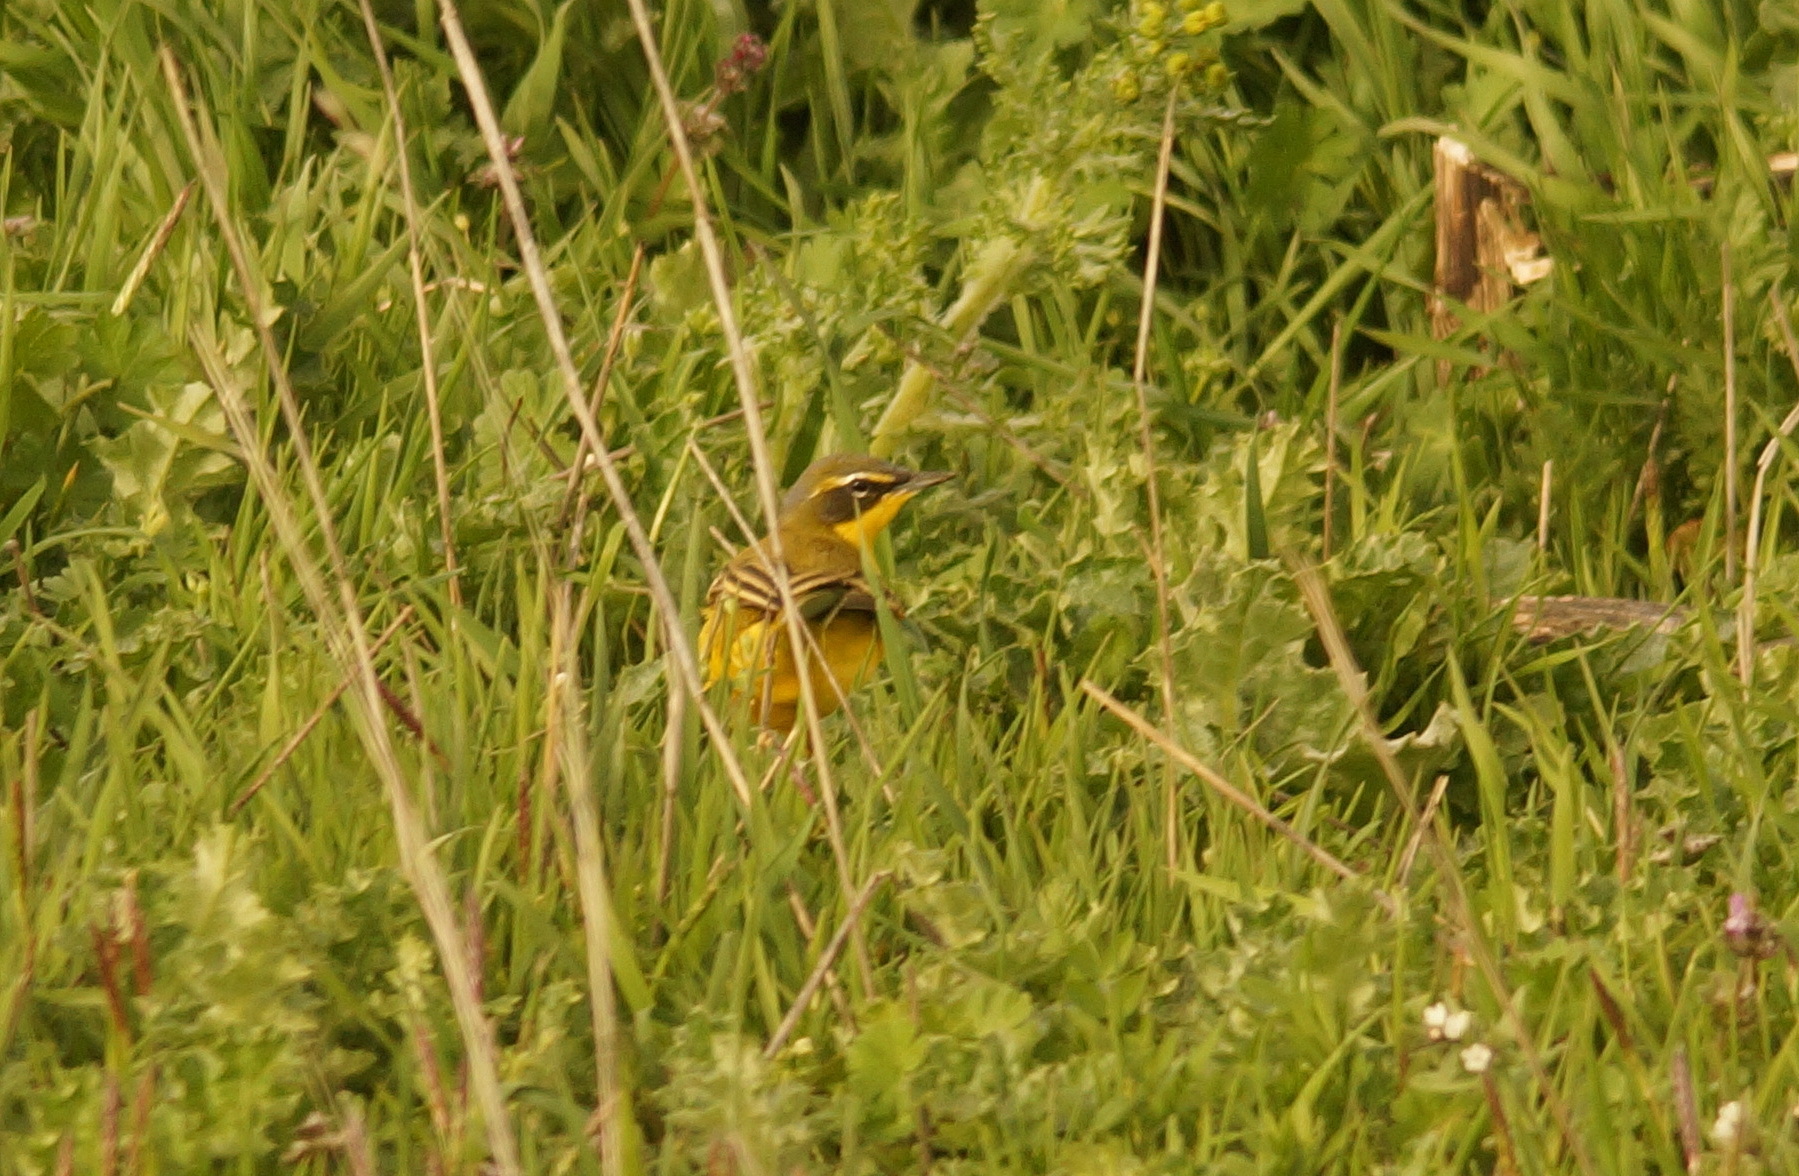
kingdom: Animalia
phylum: Chordata
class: Aves
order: Passeriformes
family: Motacillidae
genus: Motacilla
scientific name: Motacilla flava
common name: Western yellow wagtail
